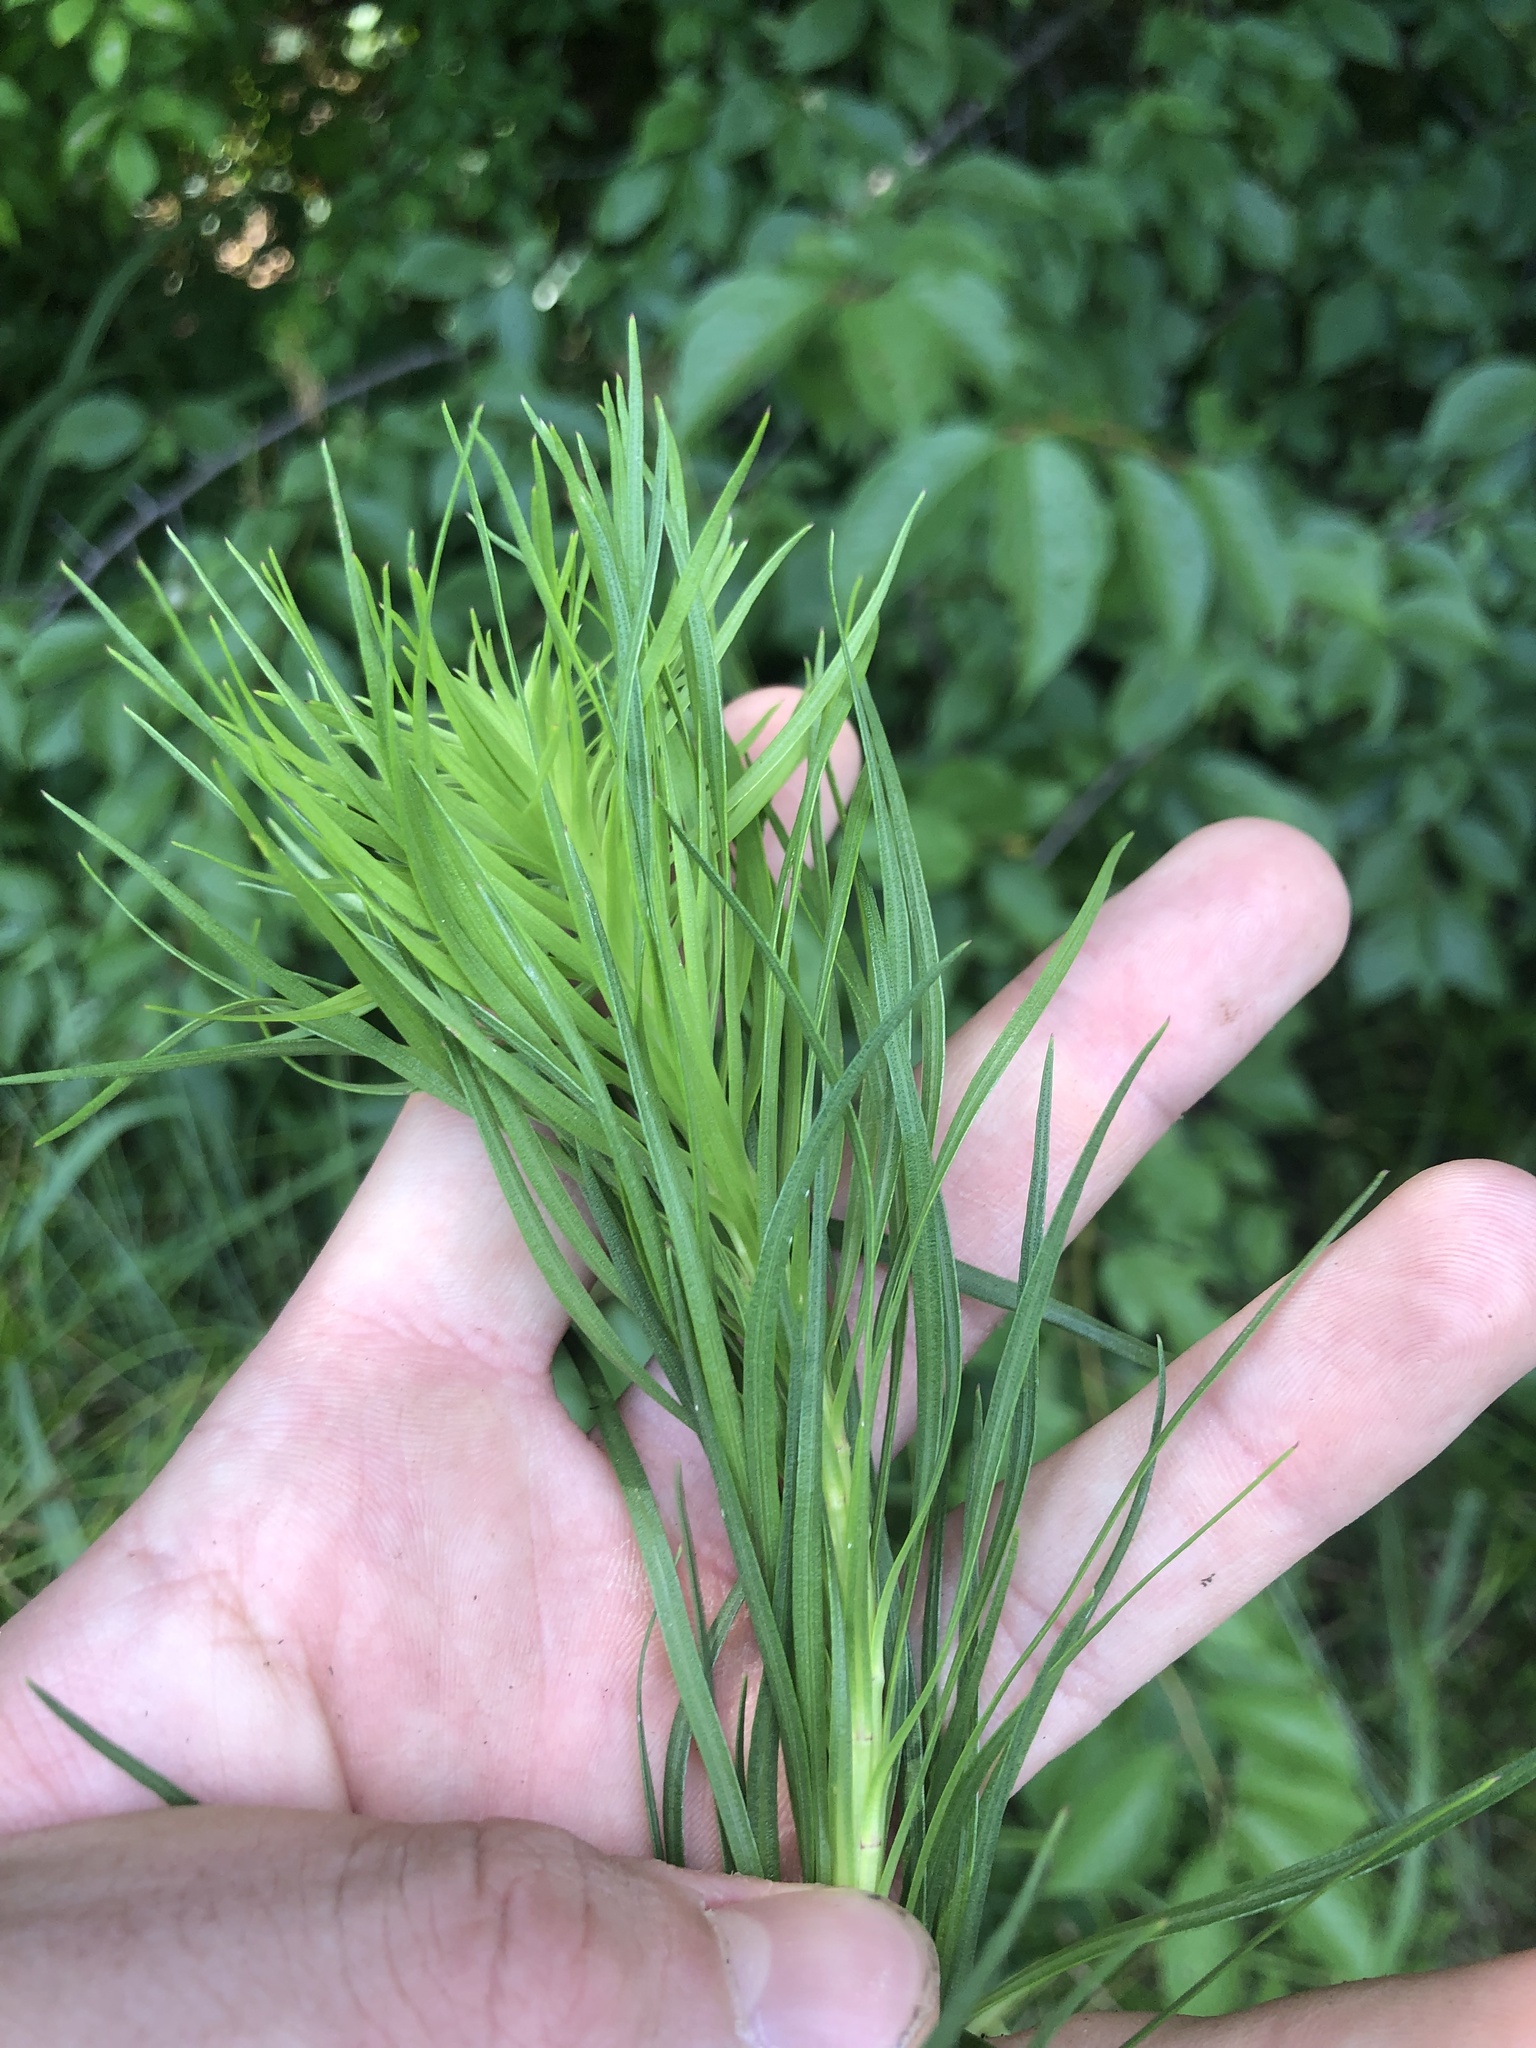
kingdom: Plantae
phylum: Tracheophyta
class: Magnoliopsida
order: Asterales
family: Asteraceae
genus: Liatris
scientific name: Liatris spicata
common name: Florist gayfeather
